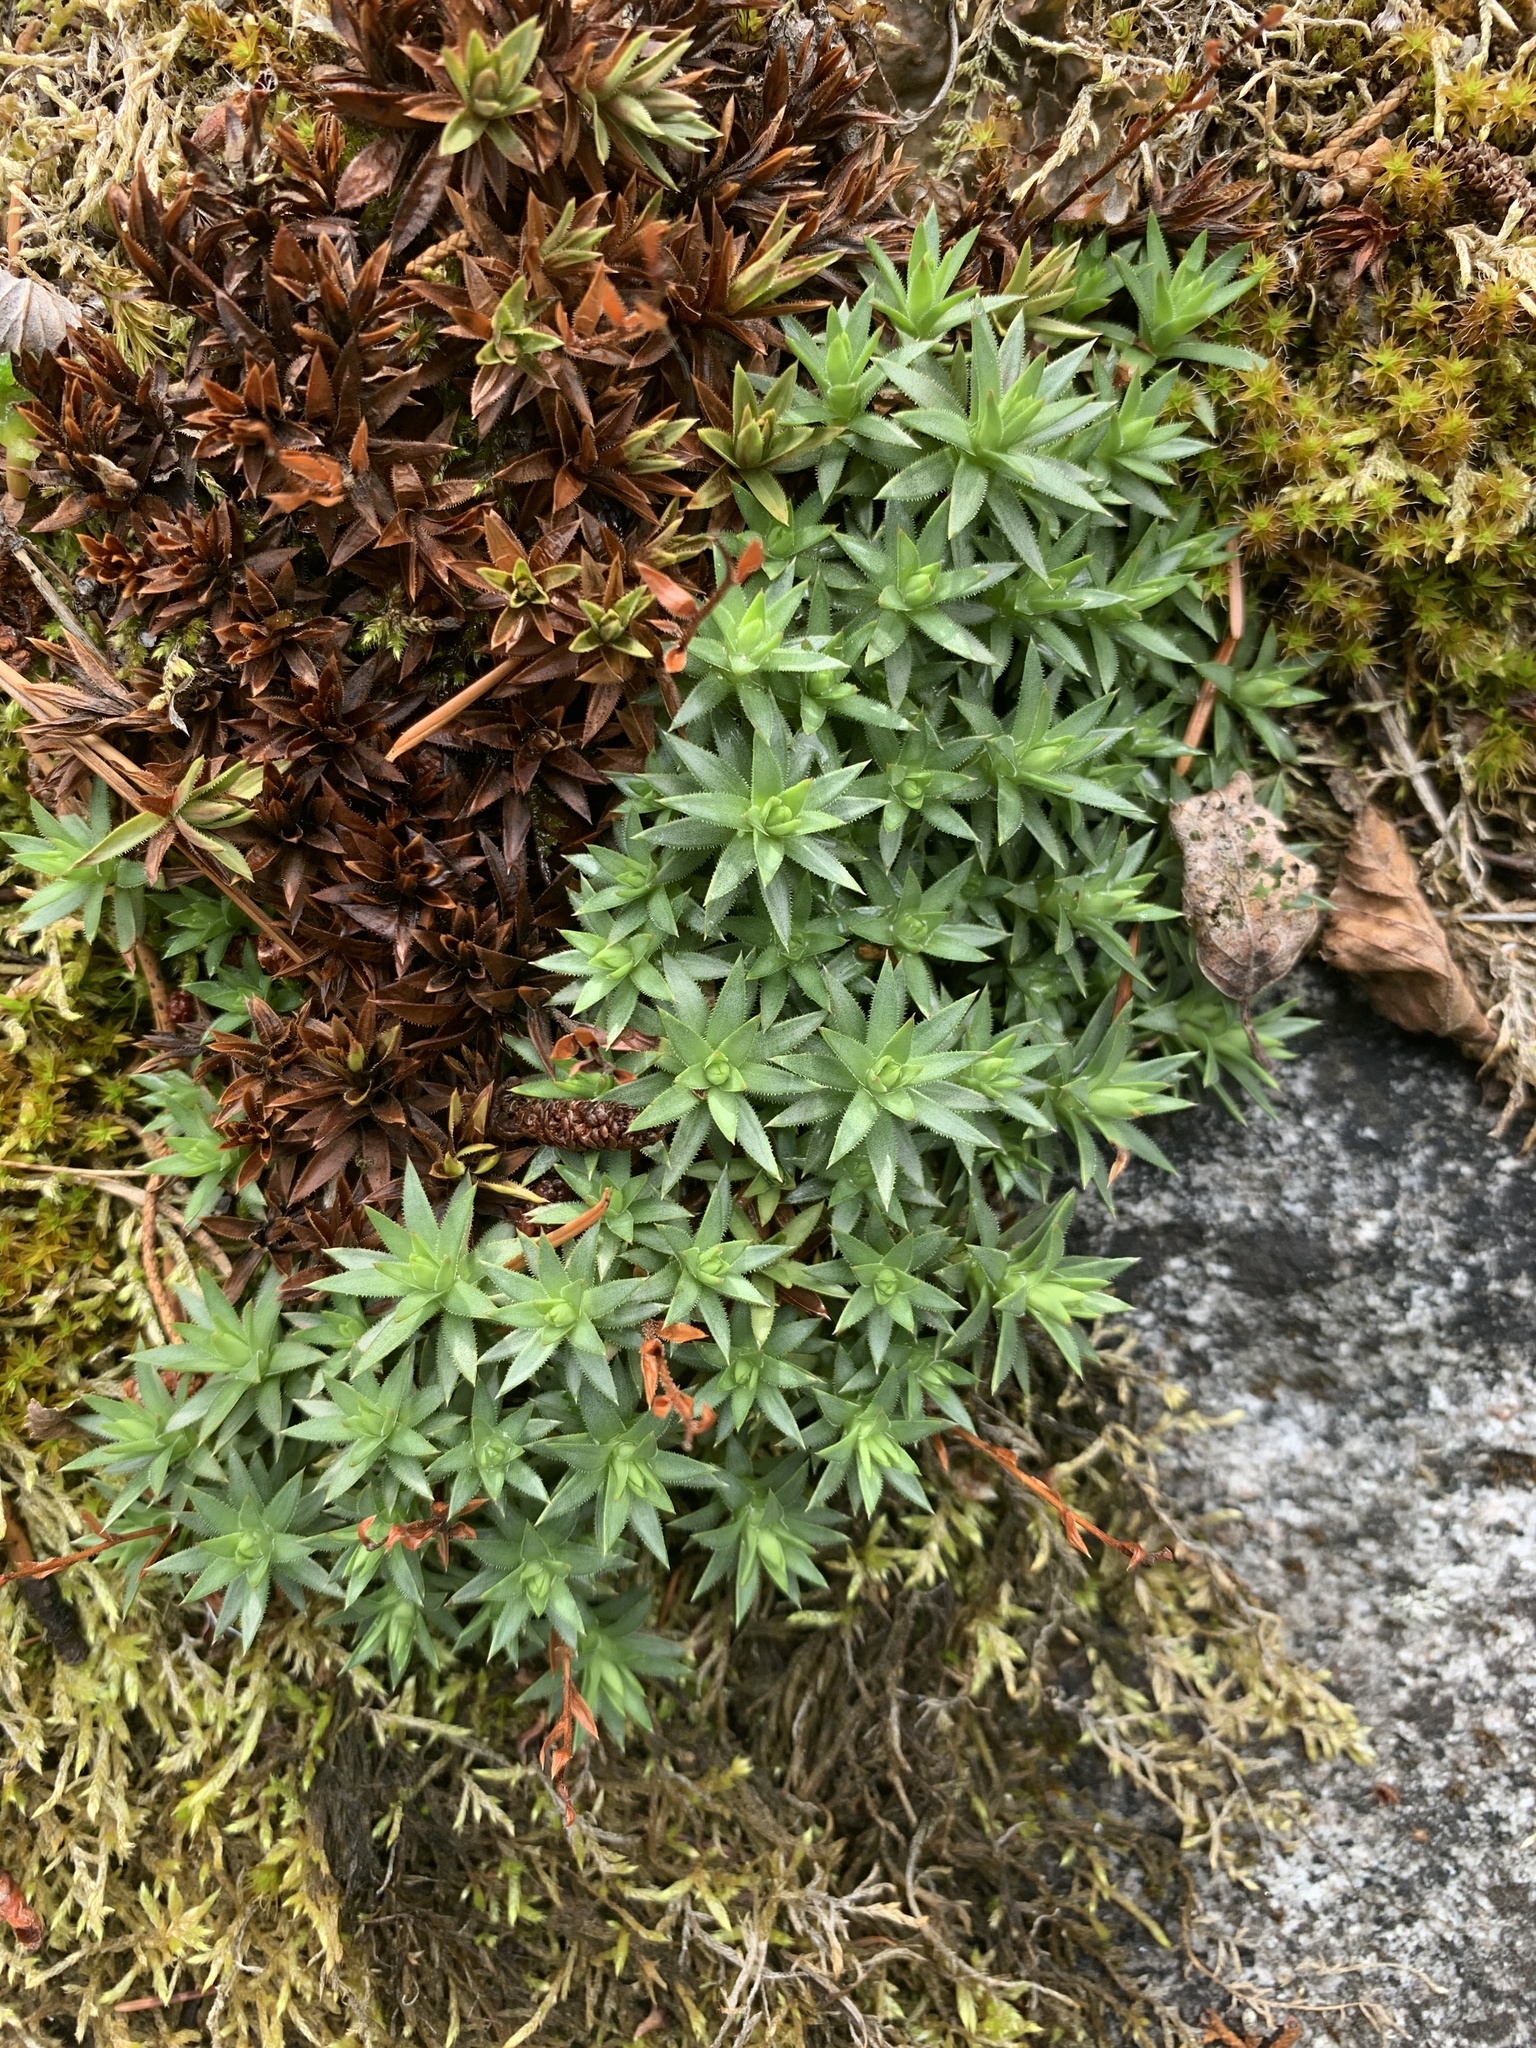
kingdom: Plantae
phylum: Tracheophyta
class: Magnoliopsida
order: Saxifragales
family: Saxifragaceae
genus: Saxifraga
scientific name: Saxifraga bronchialis
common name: Matted saxifrage
